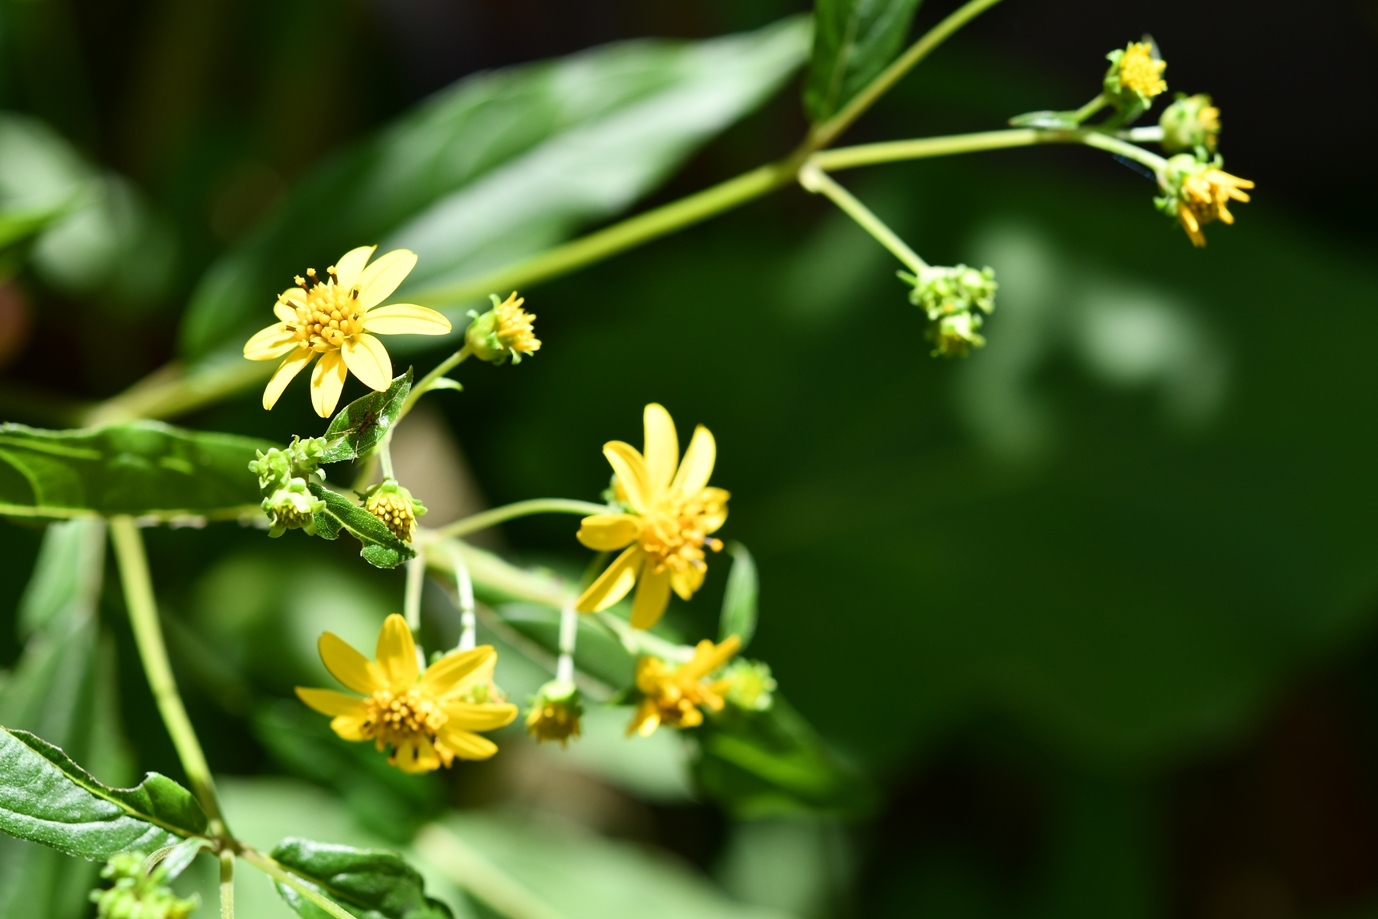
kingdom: Plantae
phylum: Tracheophyta
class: Magnoliopsida
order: Asterales
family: Asteraceae
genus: Perymenium
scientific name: Perymenium gymnolomoides
